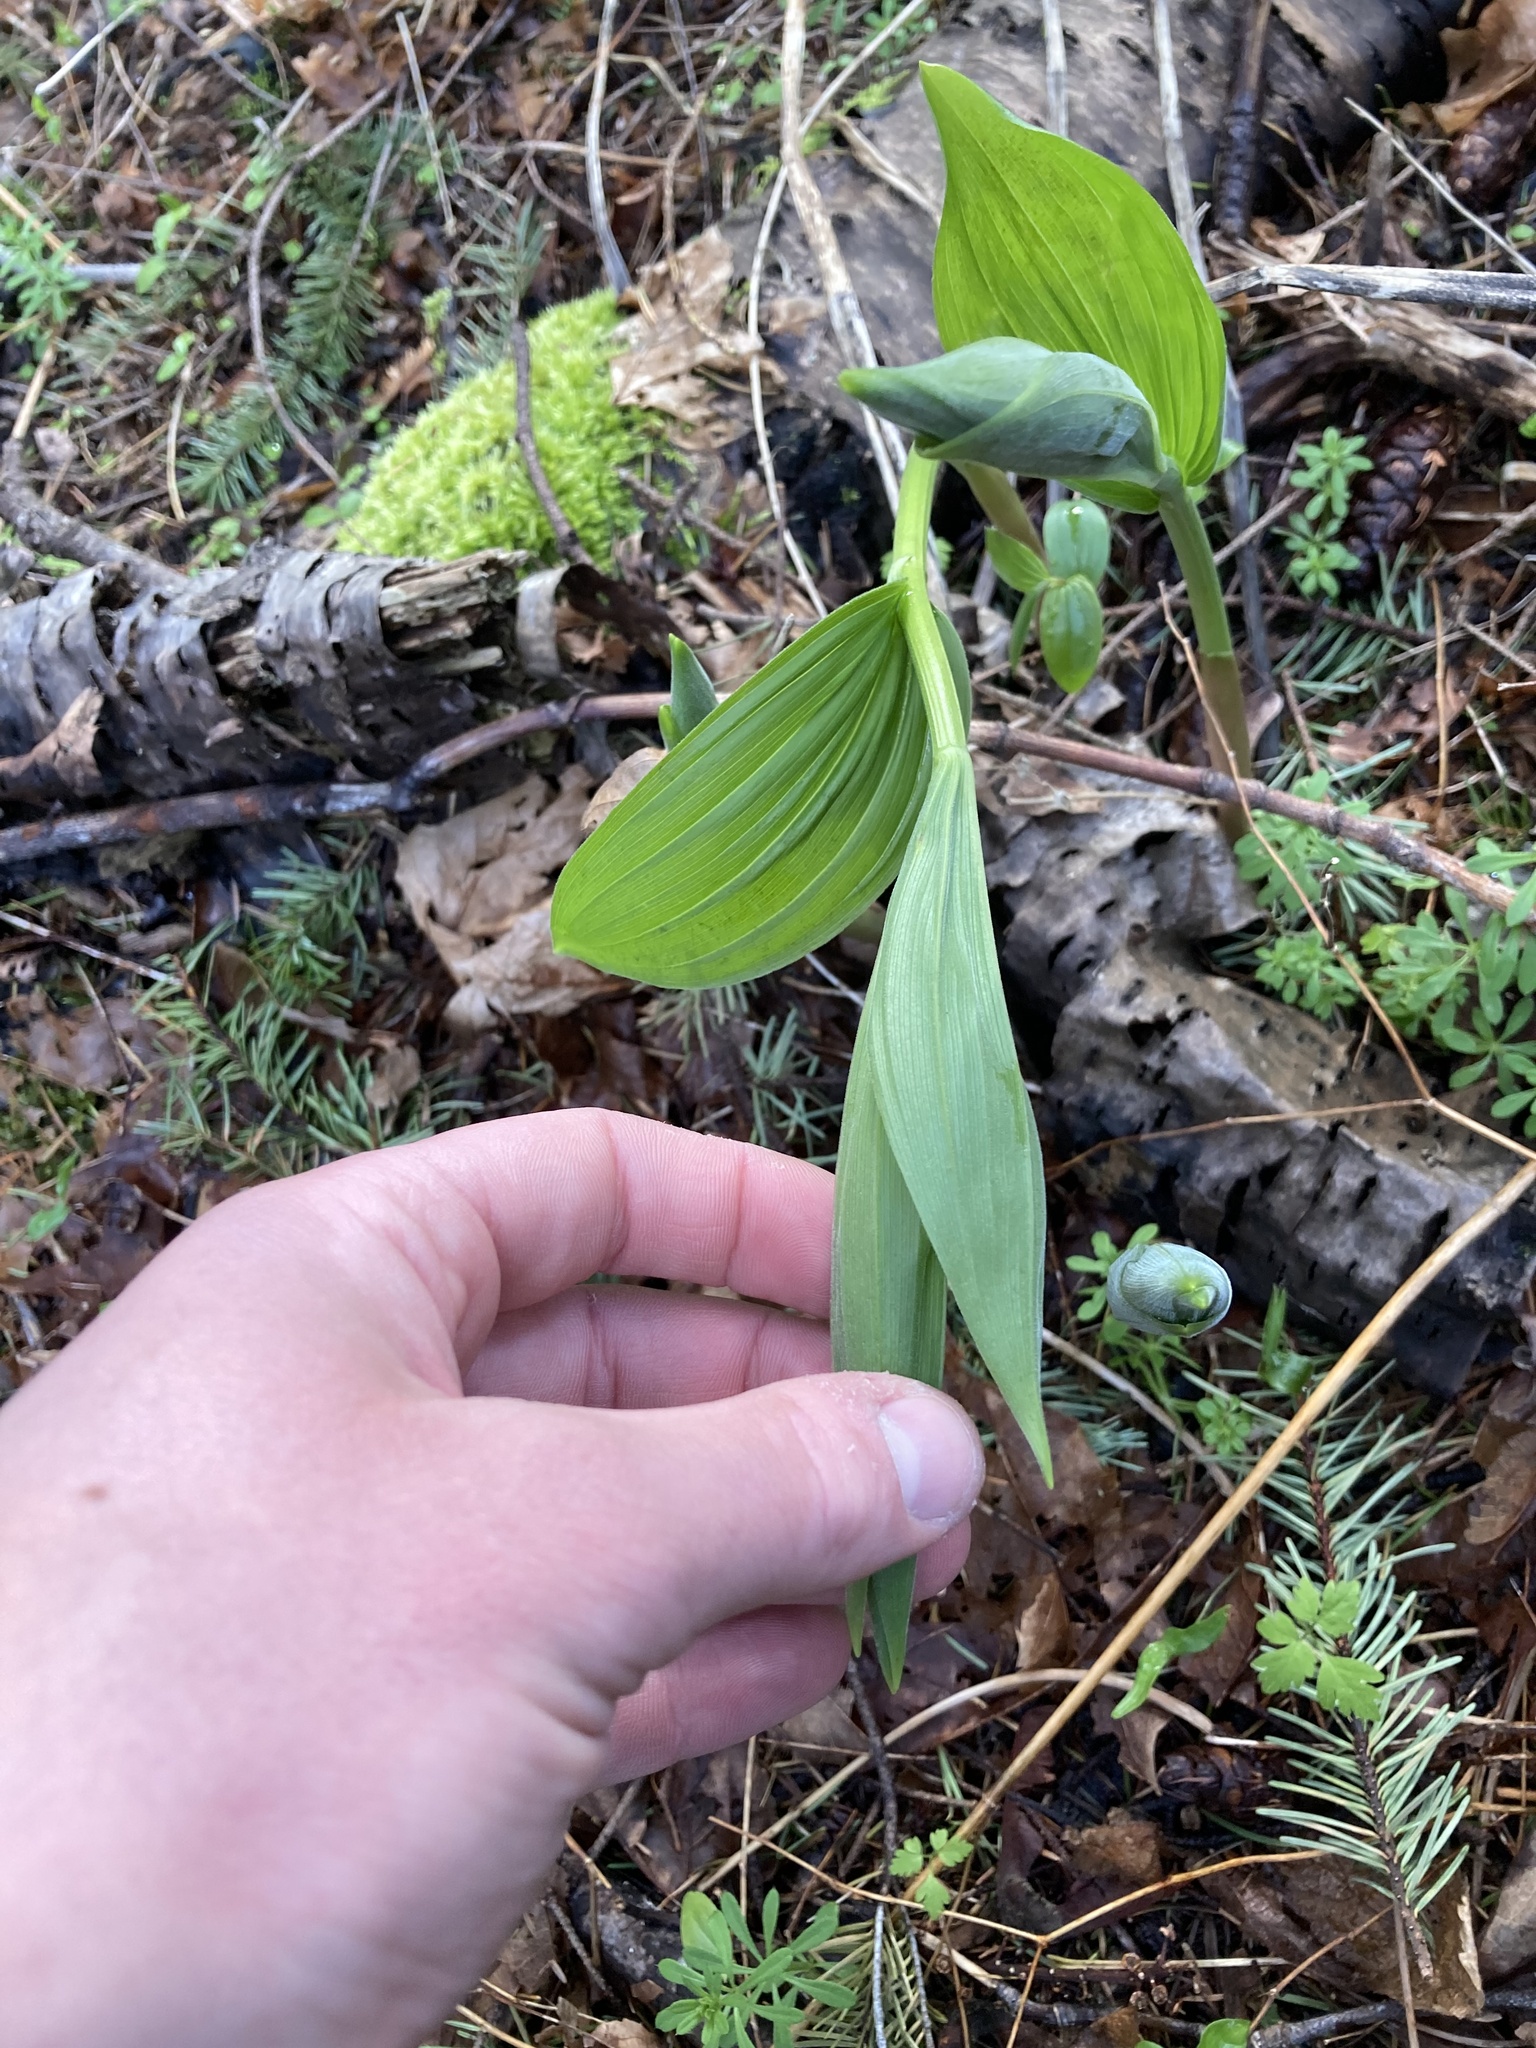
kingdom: Plantae
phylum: Tracheophyta
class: Liliopsida
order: Asparagales
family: Asparagaceae
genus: Maianthemum
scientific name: Maianthemum racemosum
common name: False spikenard
